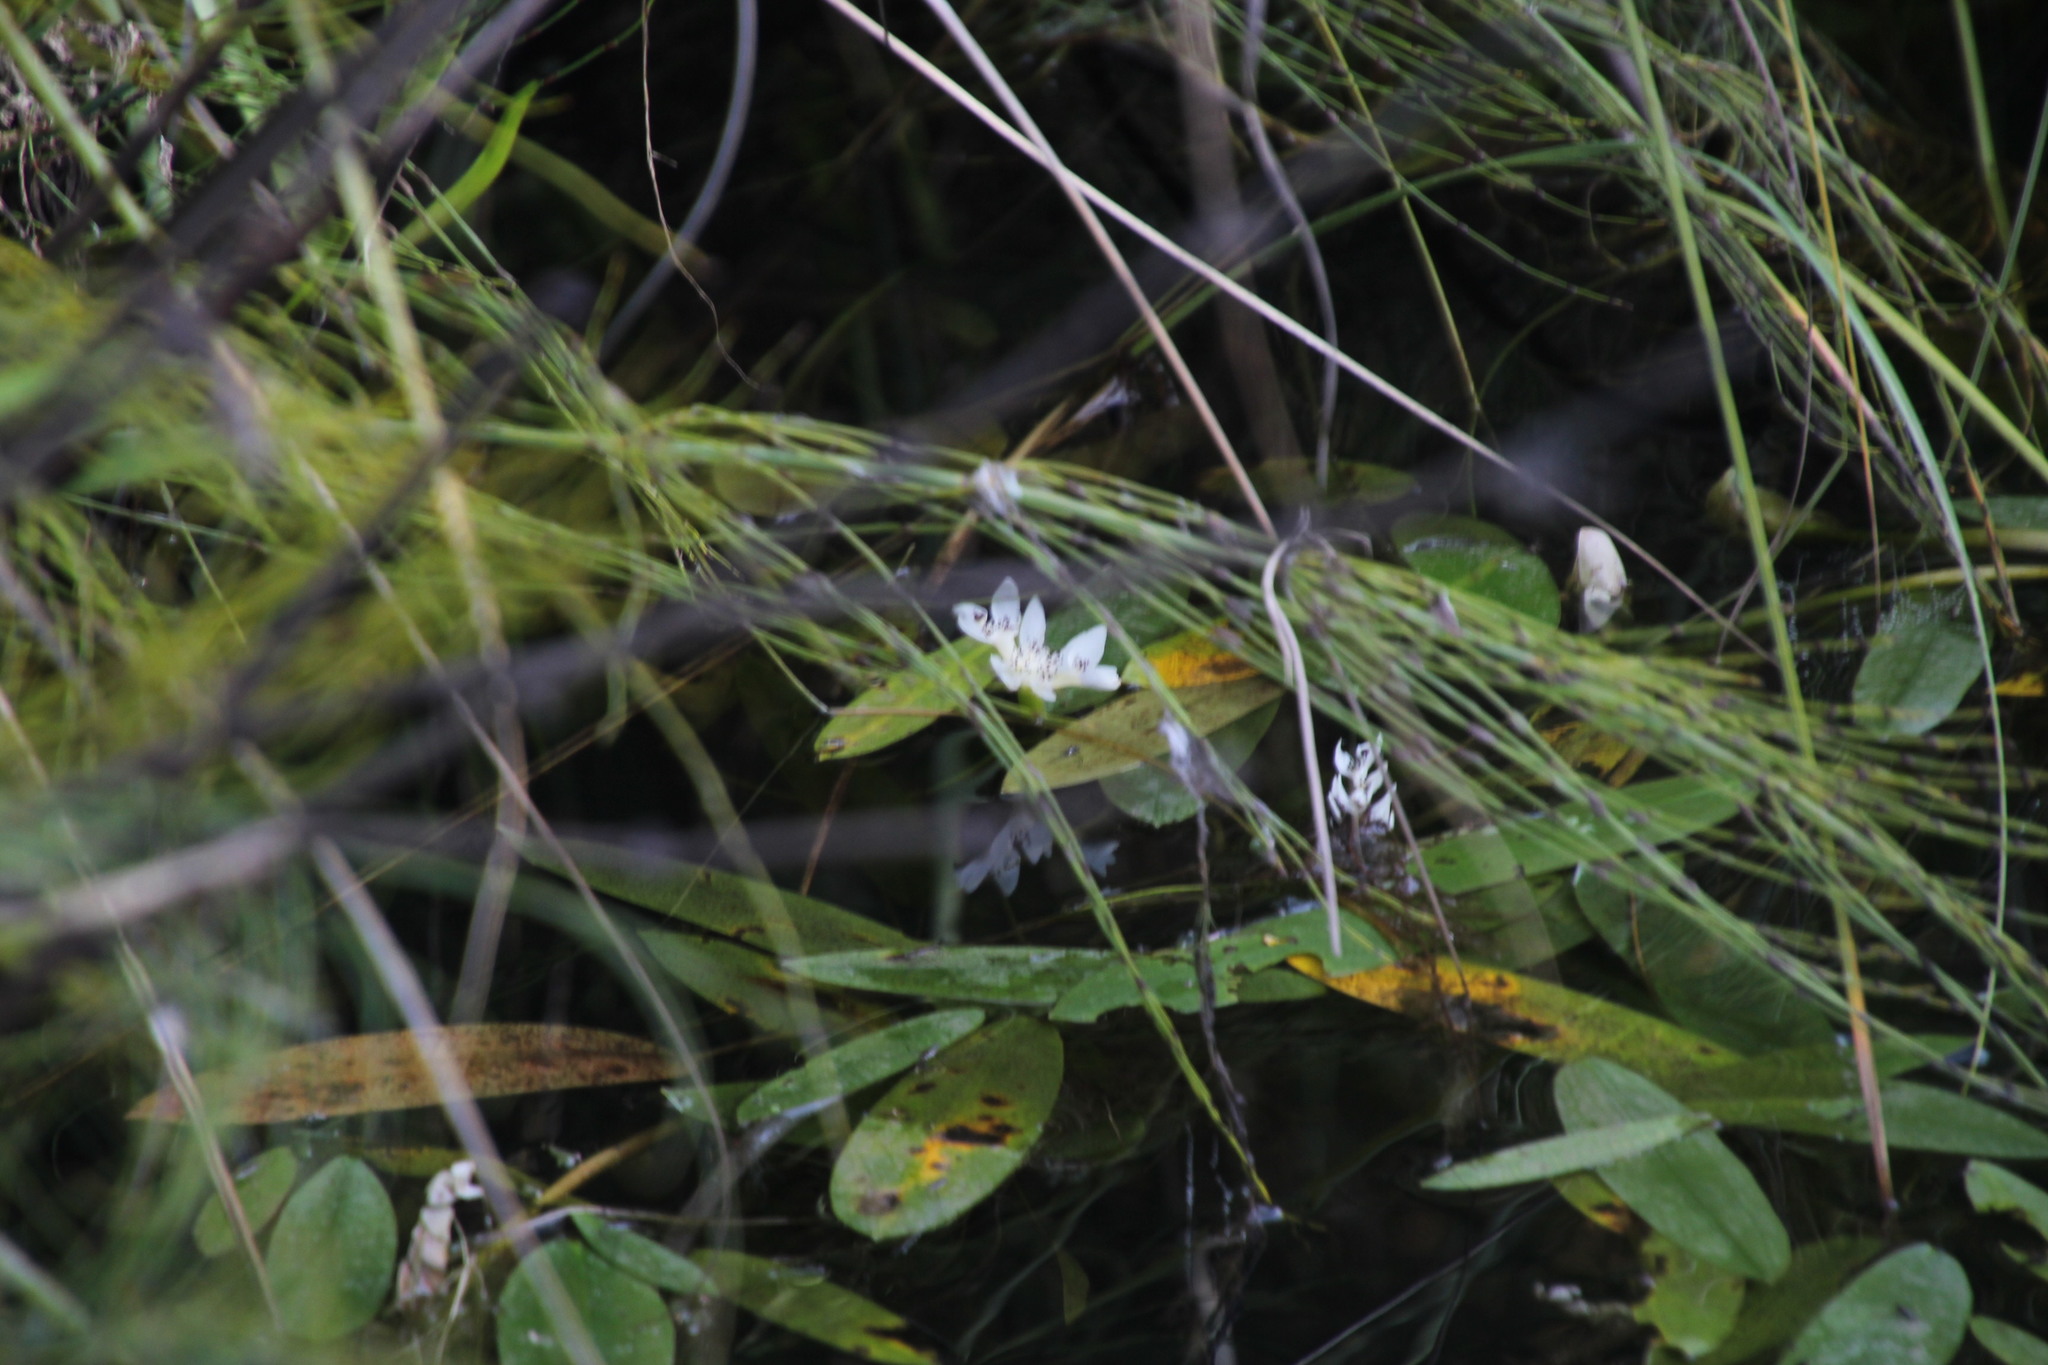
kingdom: Plantae
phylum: Tracheophyta
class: Liliopsida
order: Alismatales
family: Aponogetonaceae
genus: Aponogeton
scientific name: Aponogeton distachyos
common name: Cape-pondweed
